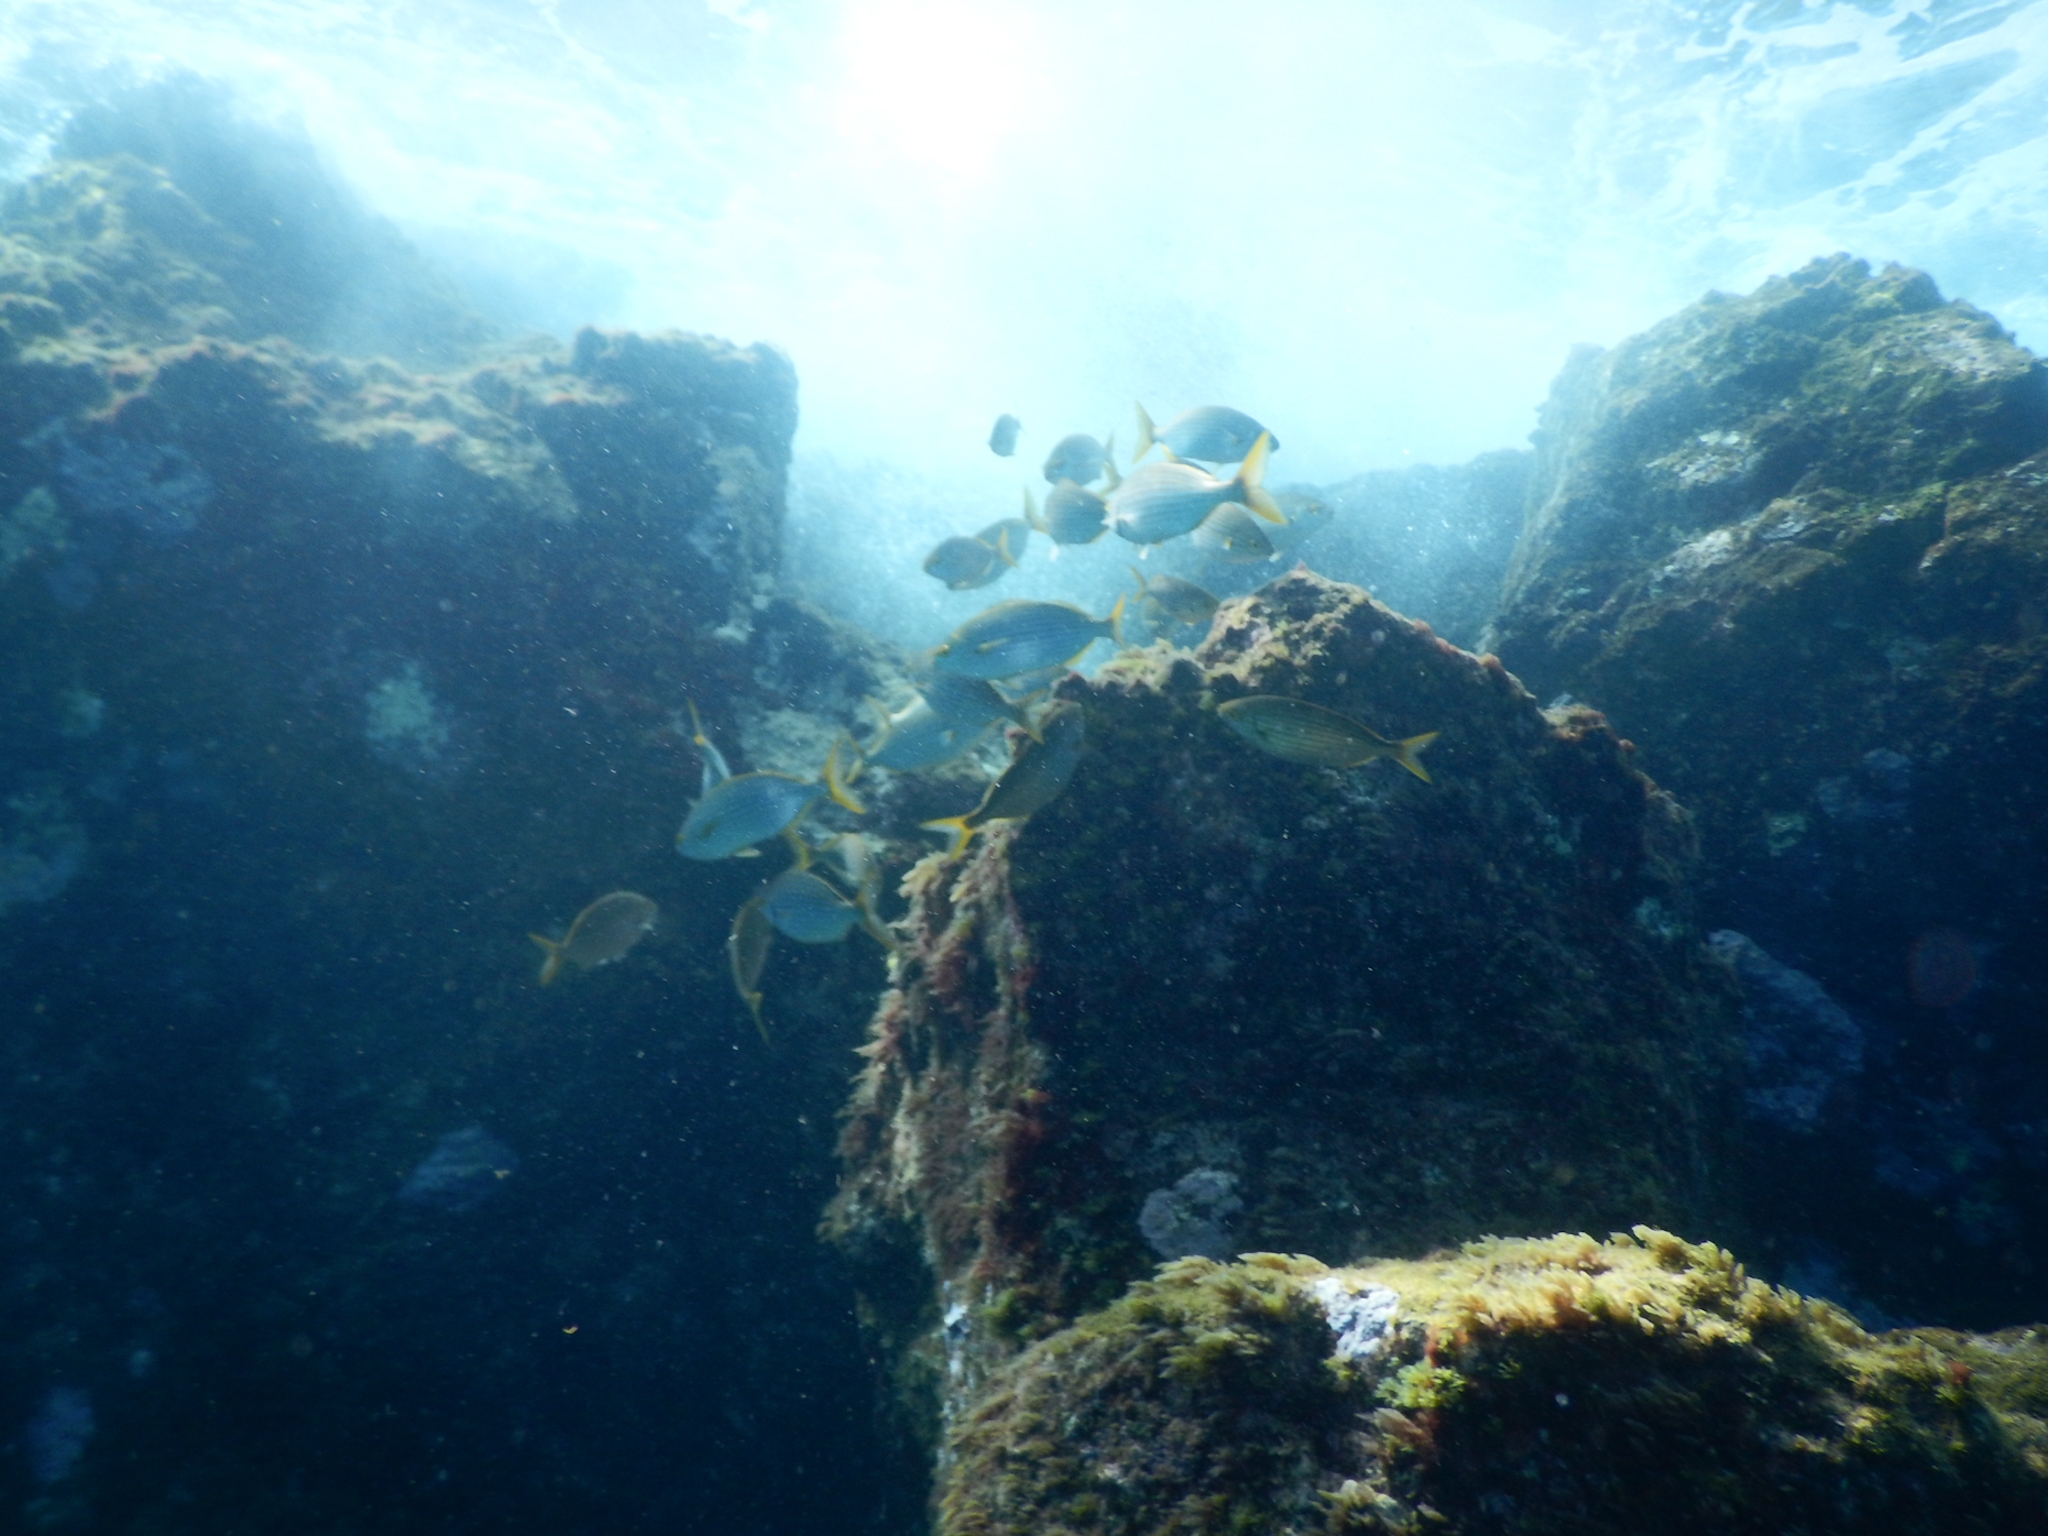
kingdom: Animalia
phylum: Chordata
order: Perciformes
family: Sparidae
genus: Sarpa
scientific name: Sarpa salpa
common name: Salema
